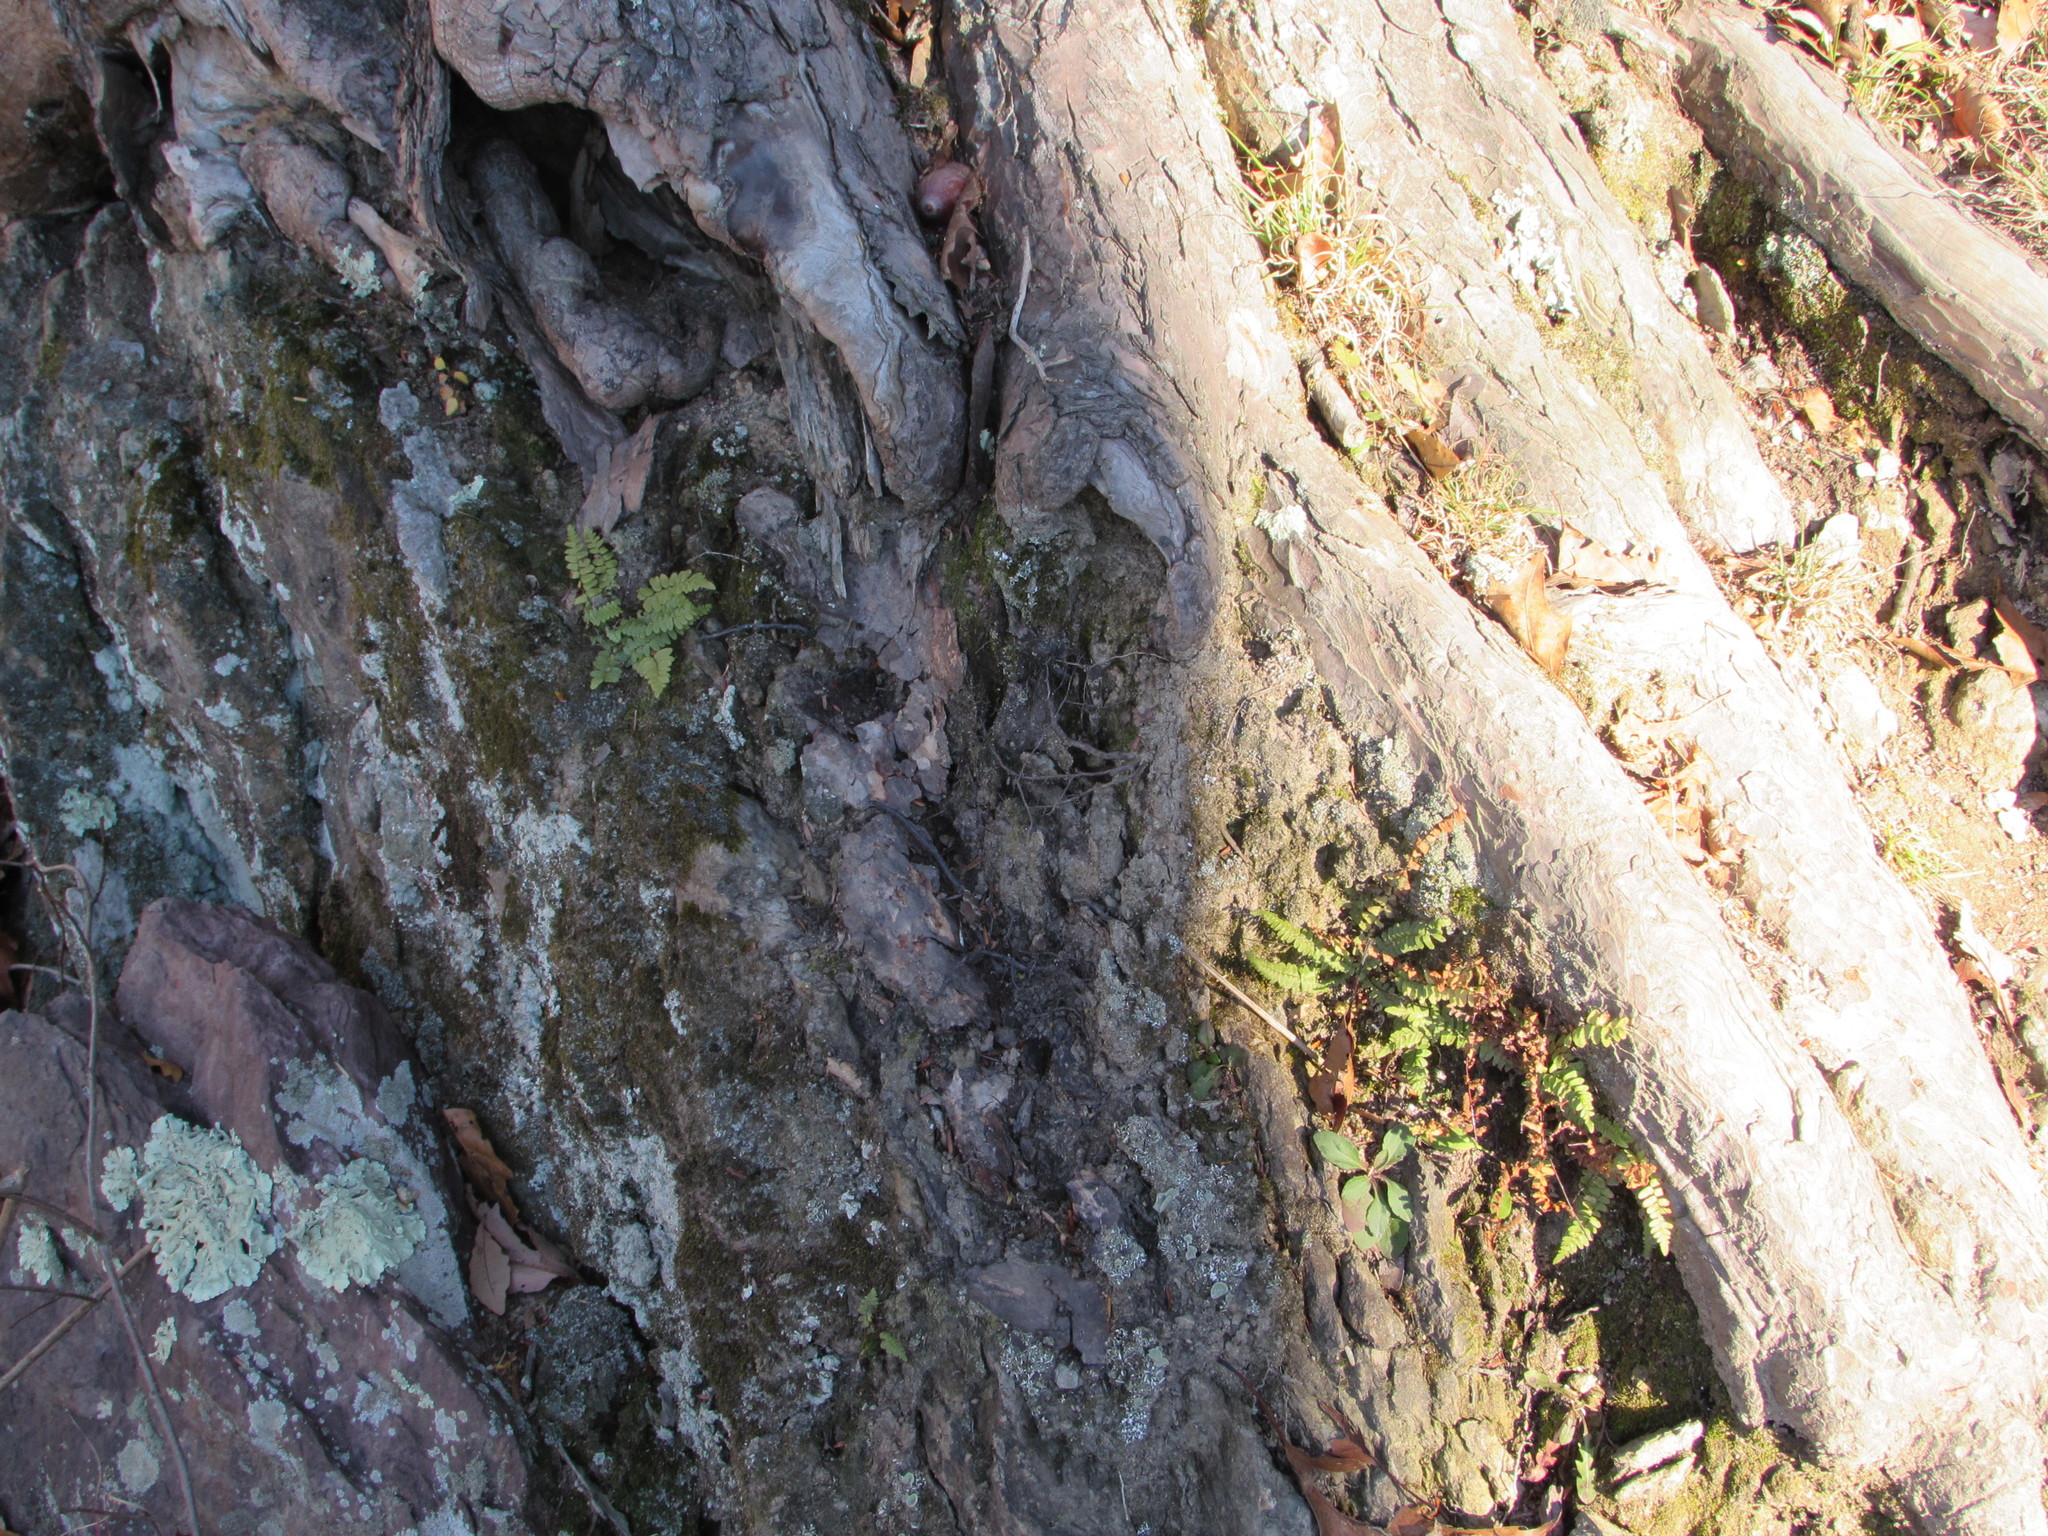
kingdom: Plantae
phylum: Tracheophyta
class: Polypodiopsida
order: Polypodiales
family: Aspleniaceae
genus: Asplenium
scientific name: Asplenium platyneuron
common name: Ebony spleenwort
